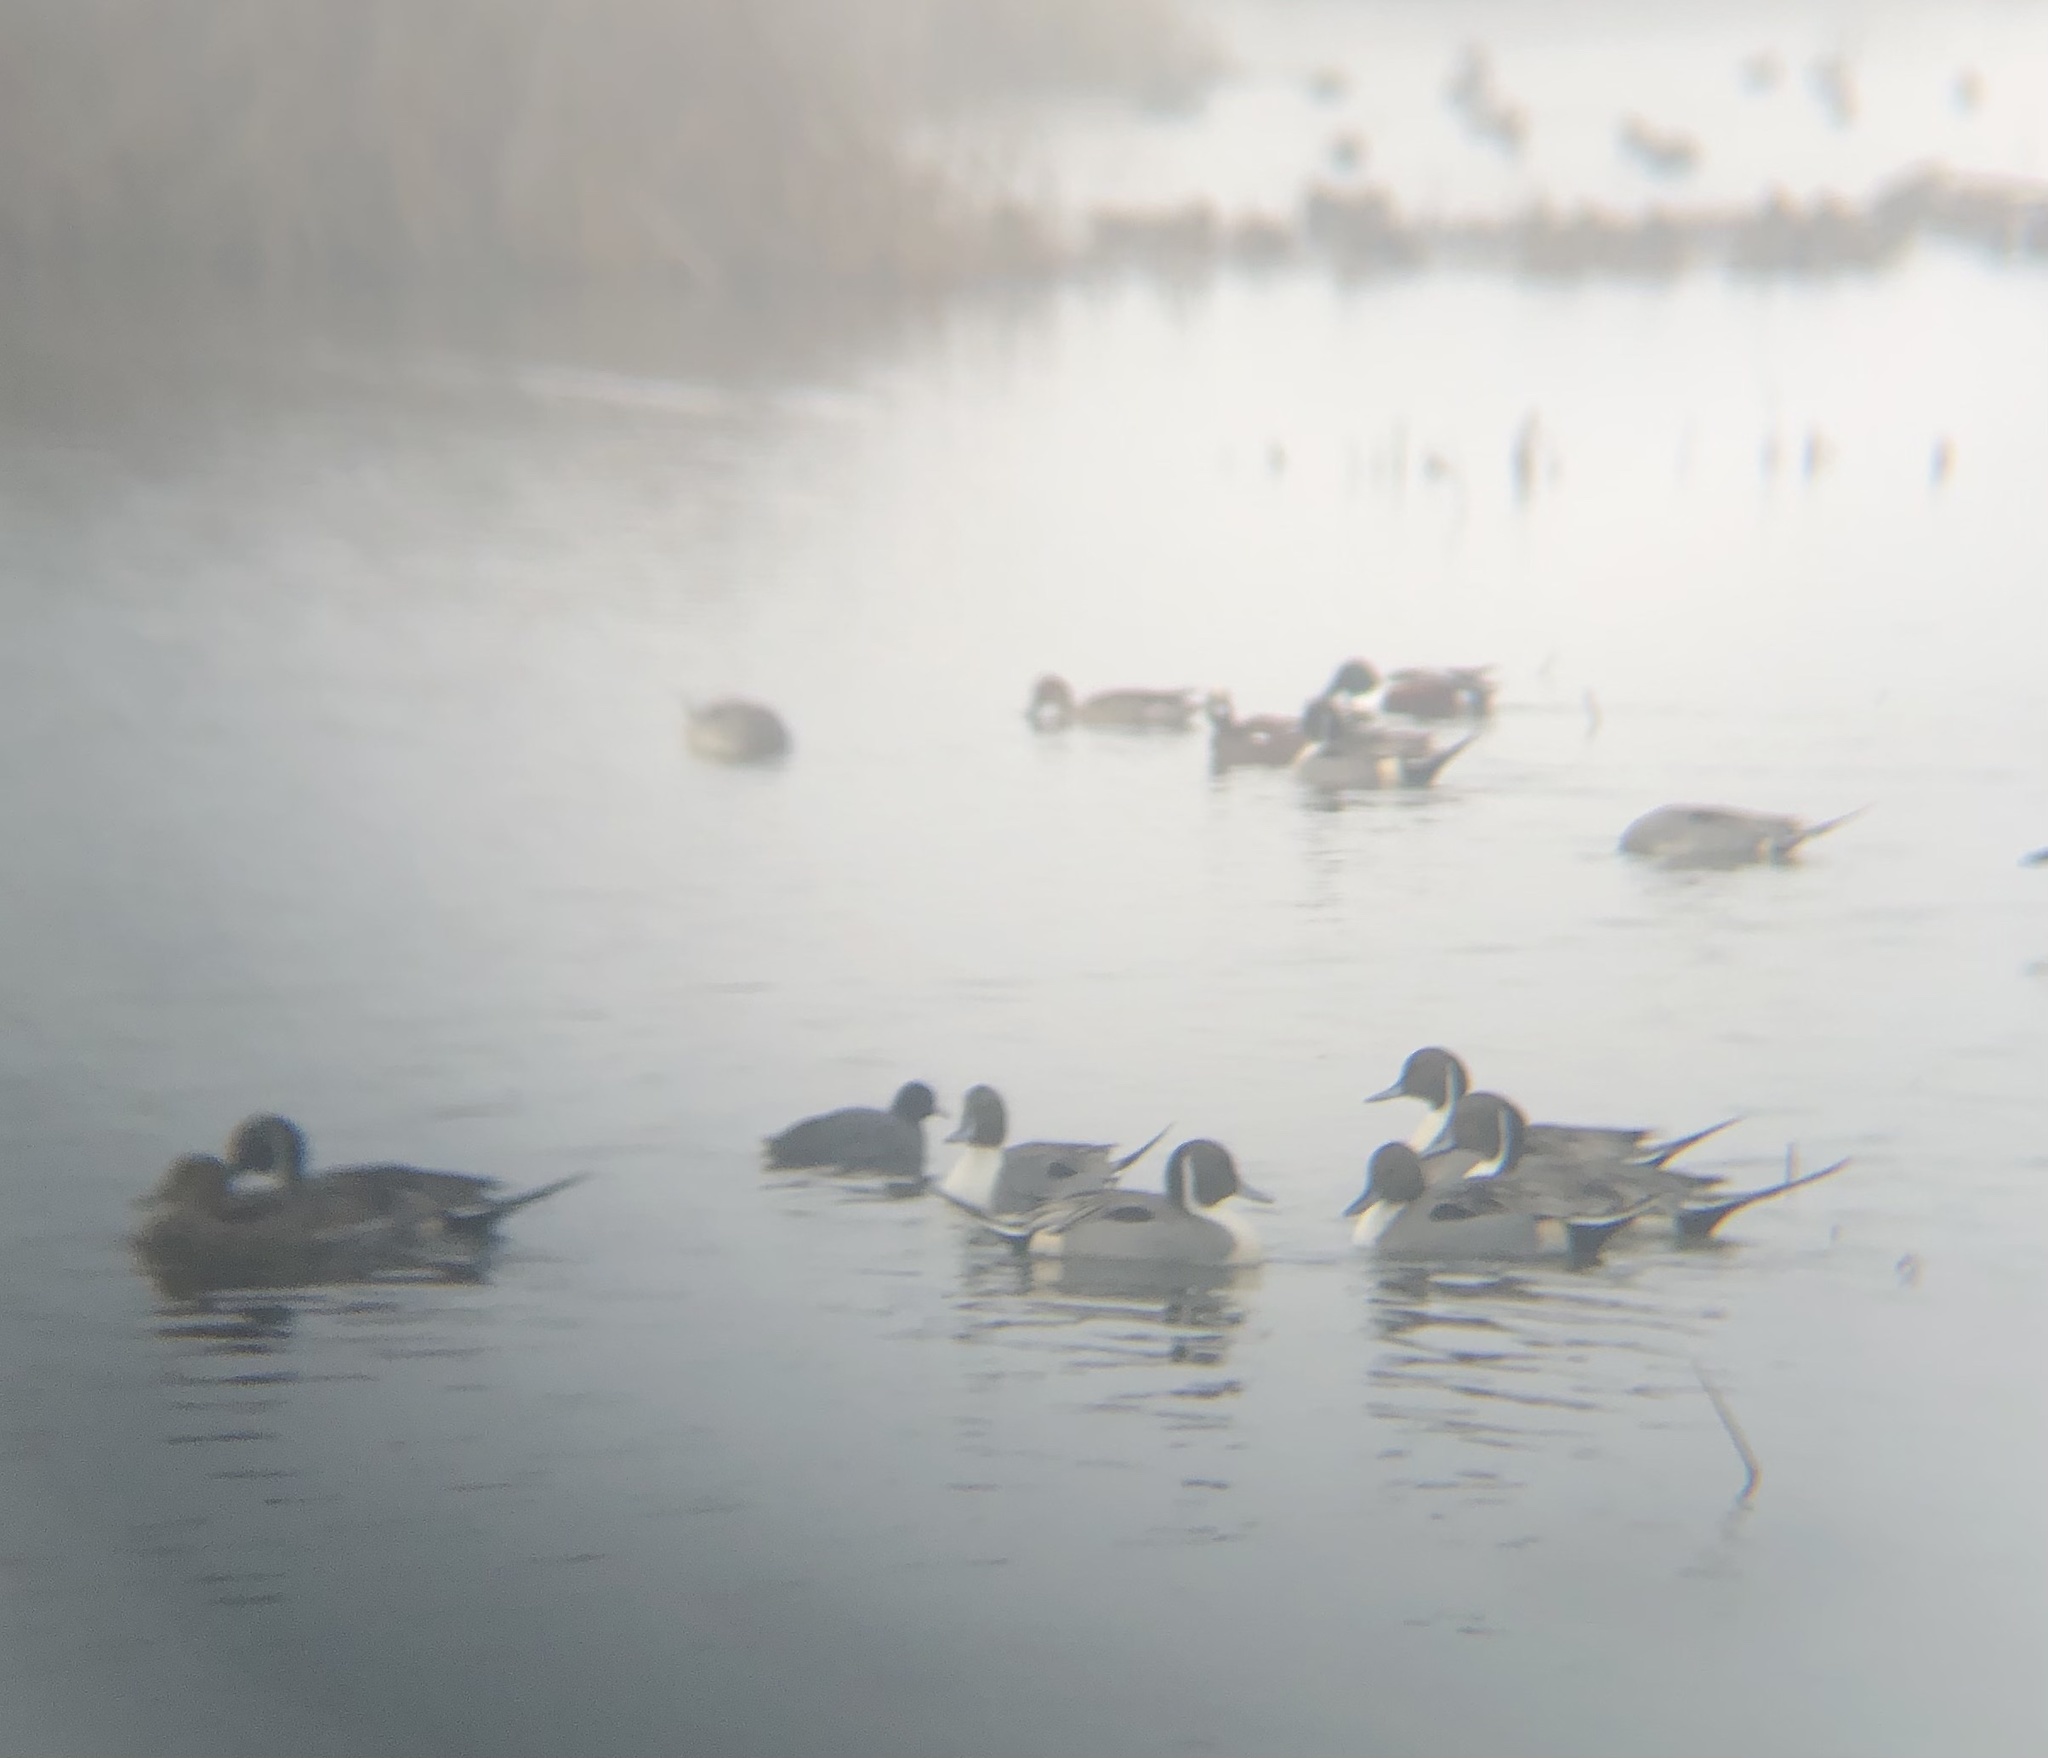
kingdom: Animalia
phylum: Chordata
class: Aves
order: Anseriformes
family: Anatidae
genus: Anas
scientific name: Anas acuta
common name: Northern pintail
